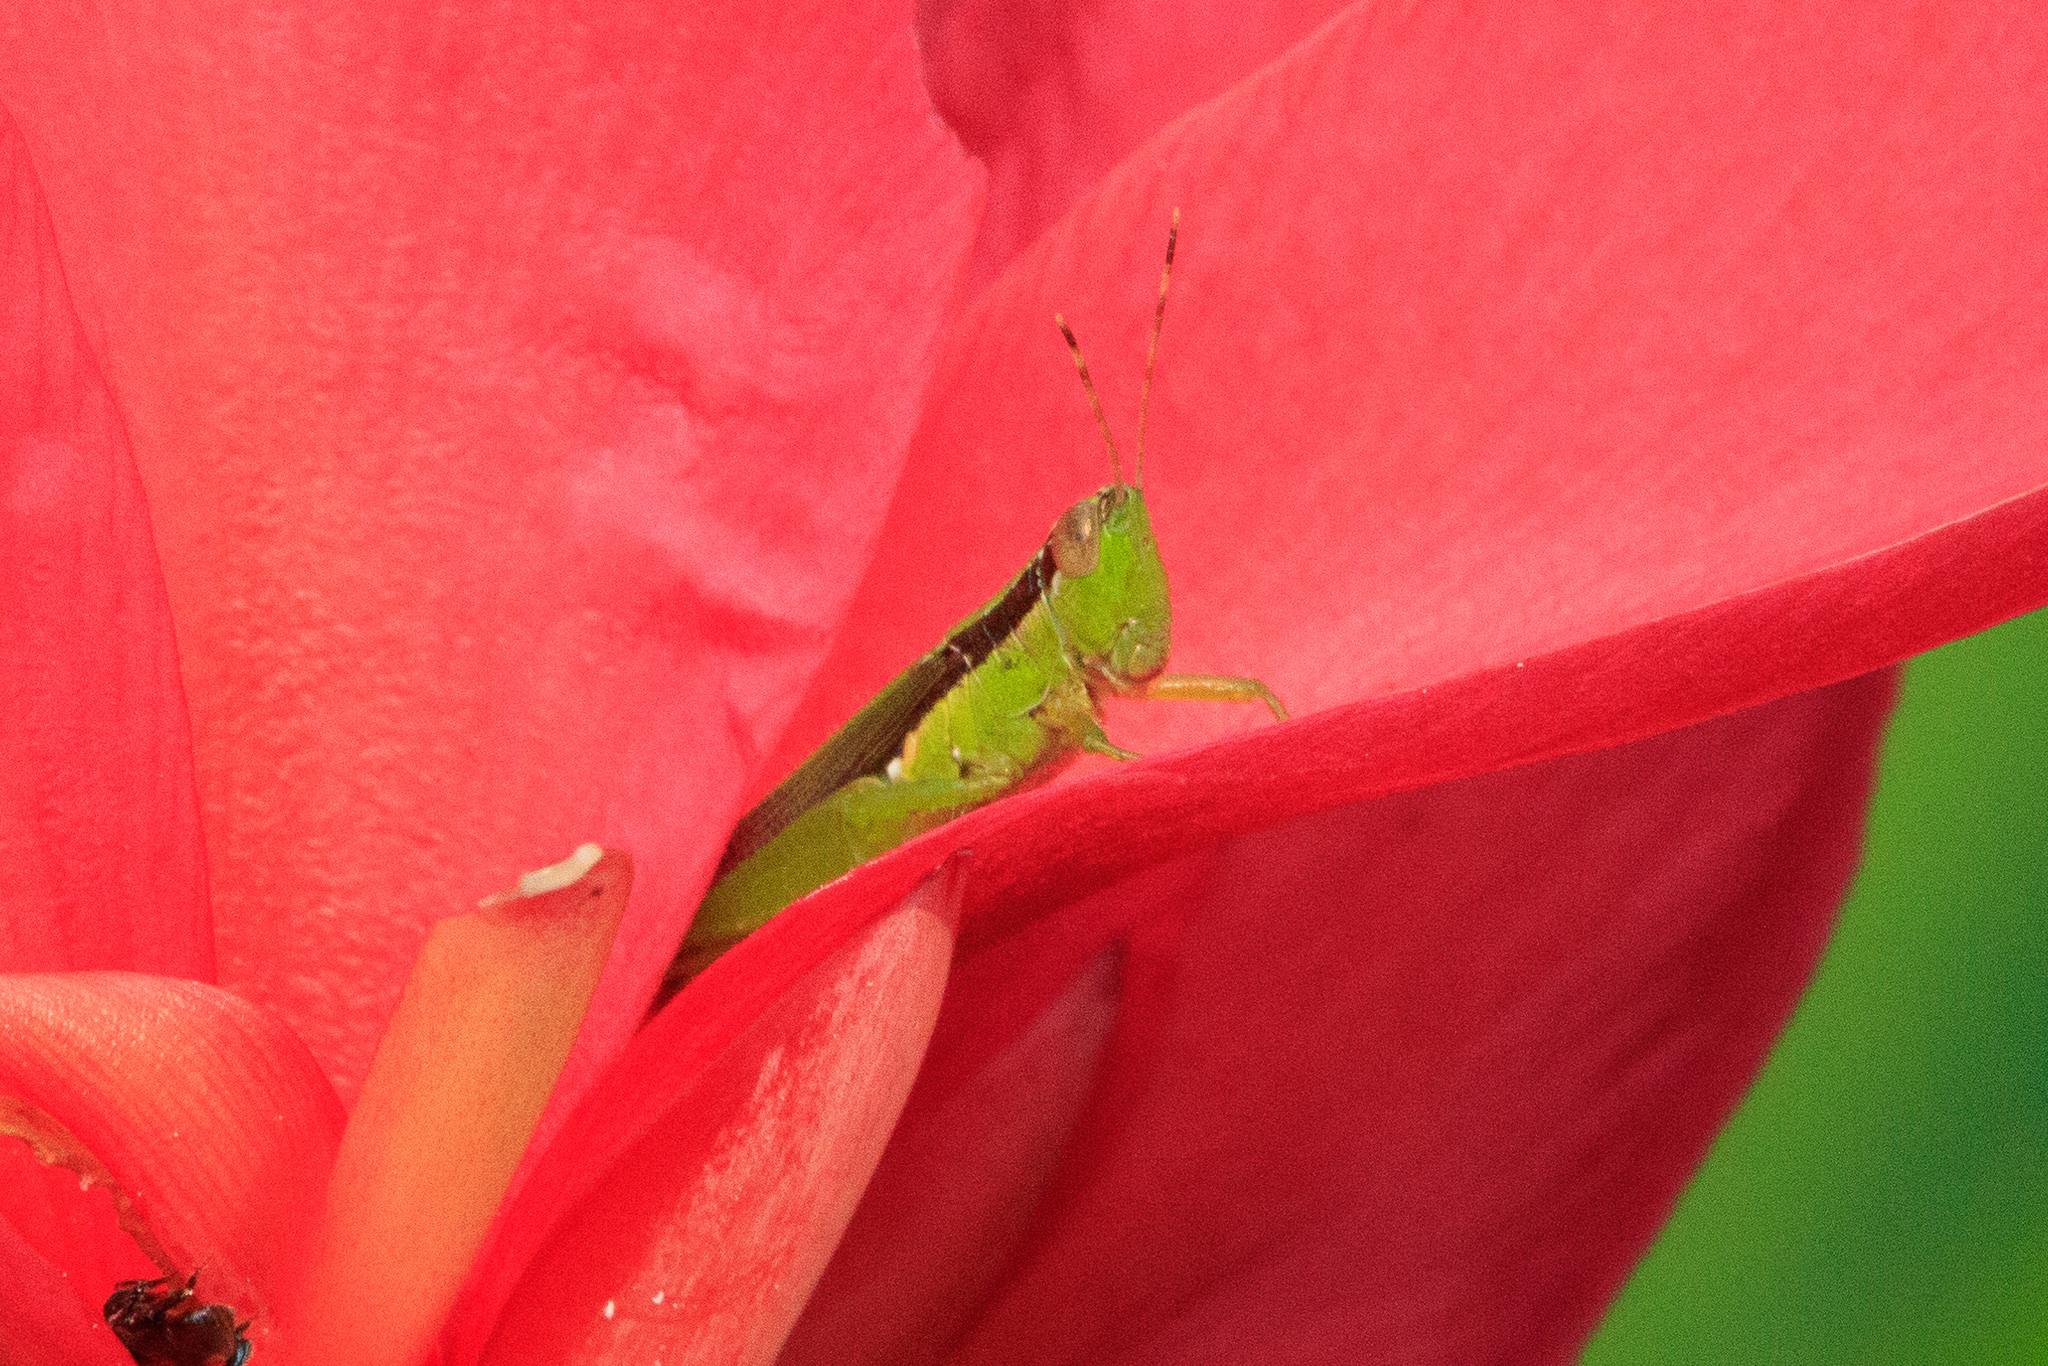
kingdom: Animalia
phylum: Arthropoda
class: Insecta
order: Orthoptera
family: Acrididae
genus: Gesonula
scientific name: Gesonula mundata
